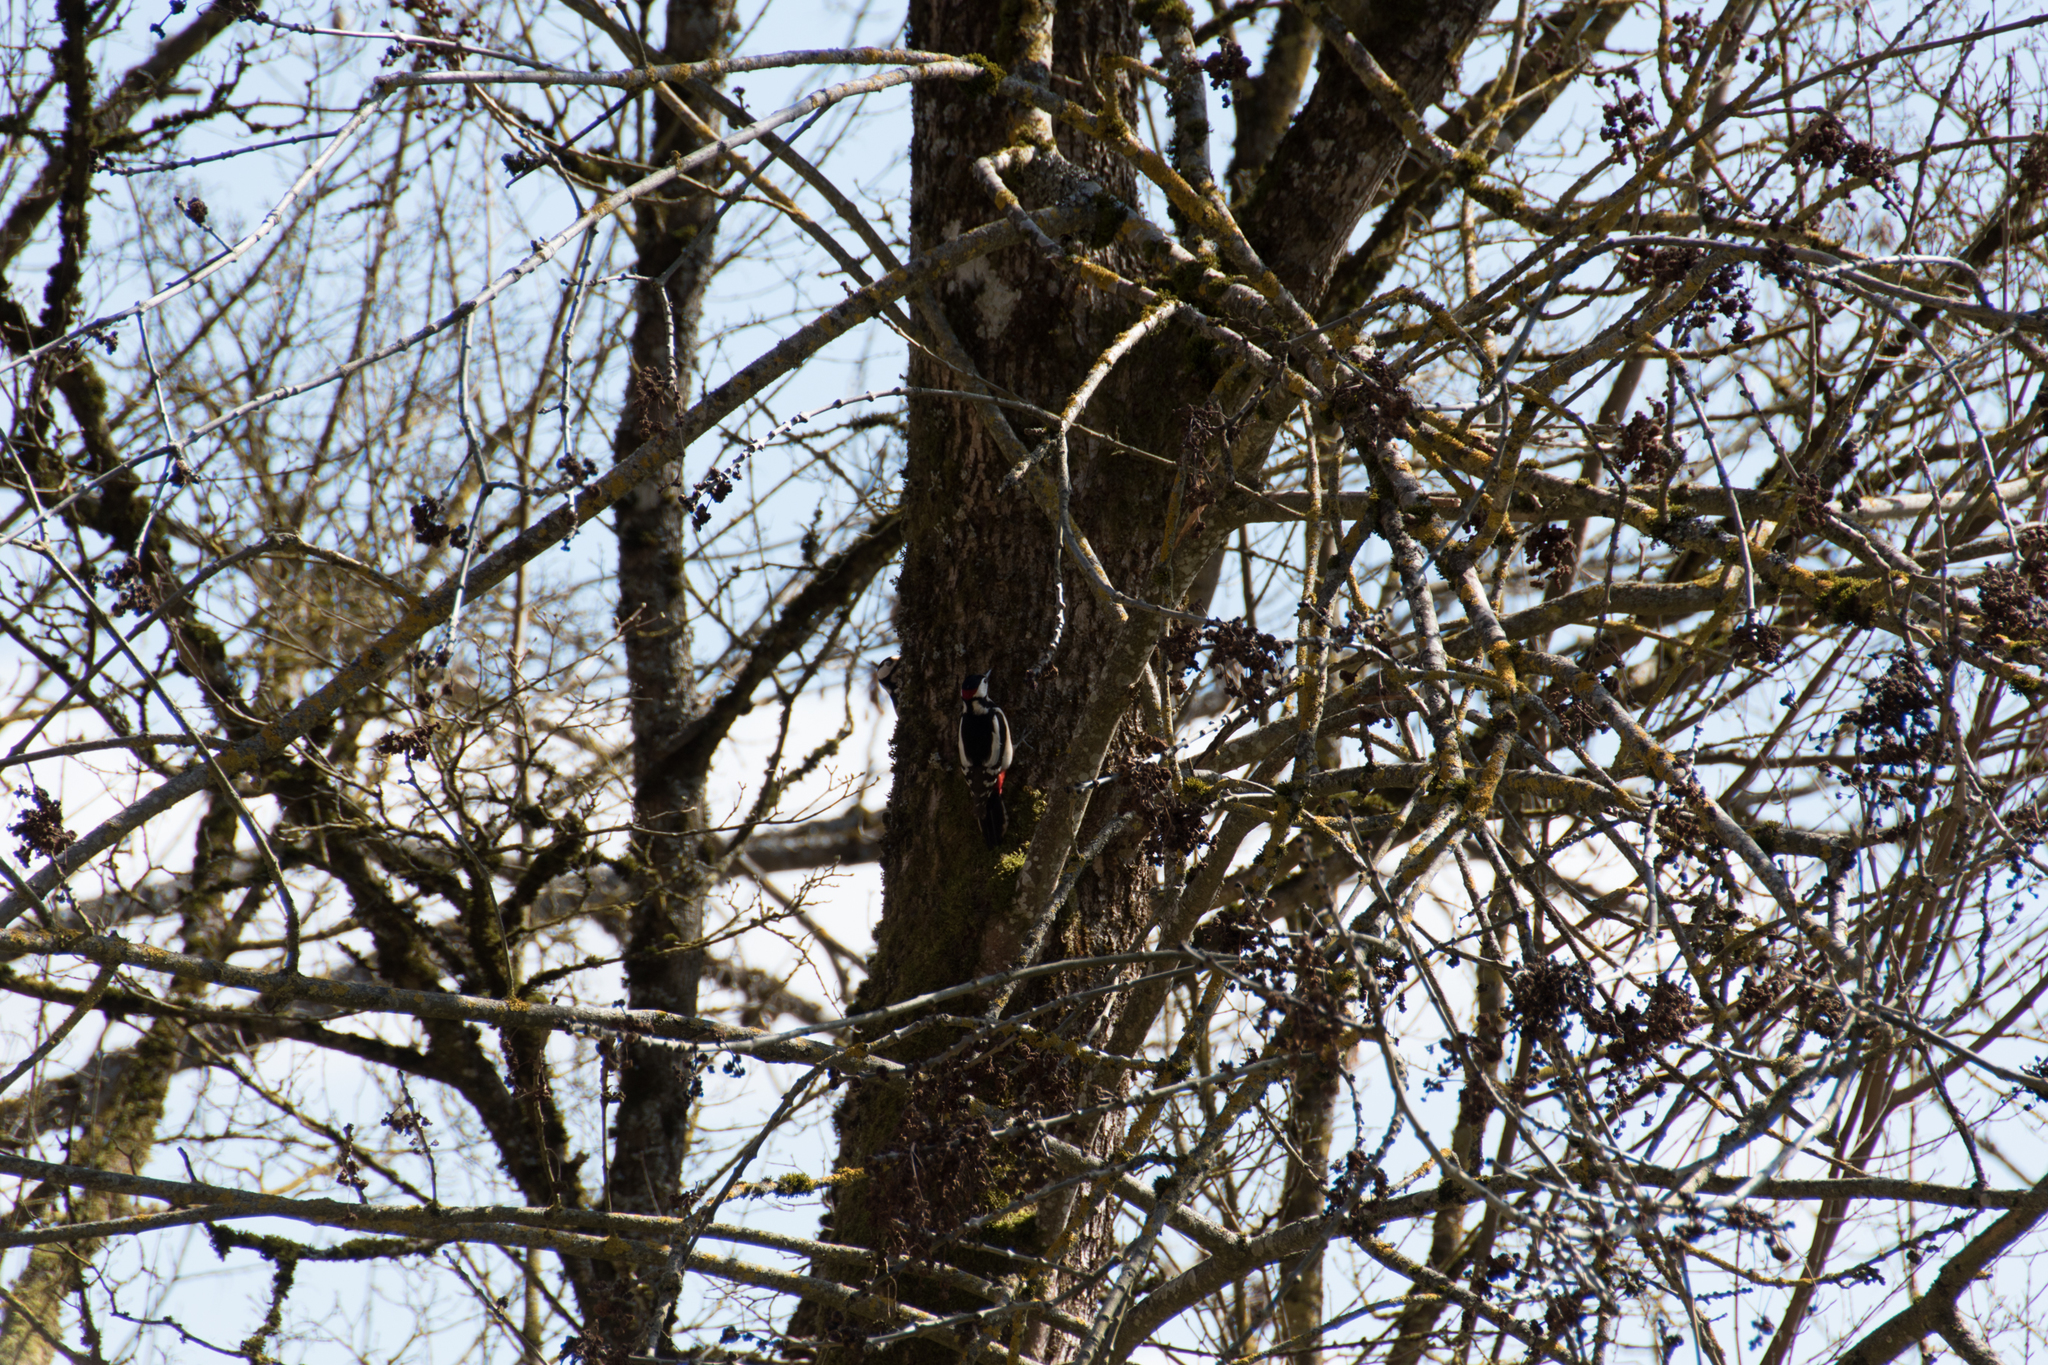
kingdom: Animalia
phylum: Chordata
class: Aves
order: Piciformes
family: Picidae
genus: Dendrocopos
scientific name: Dendrocopos major
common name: Great spotted woodpecker
